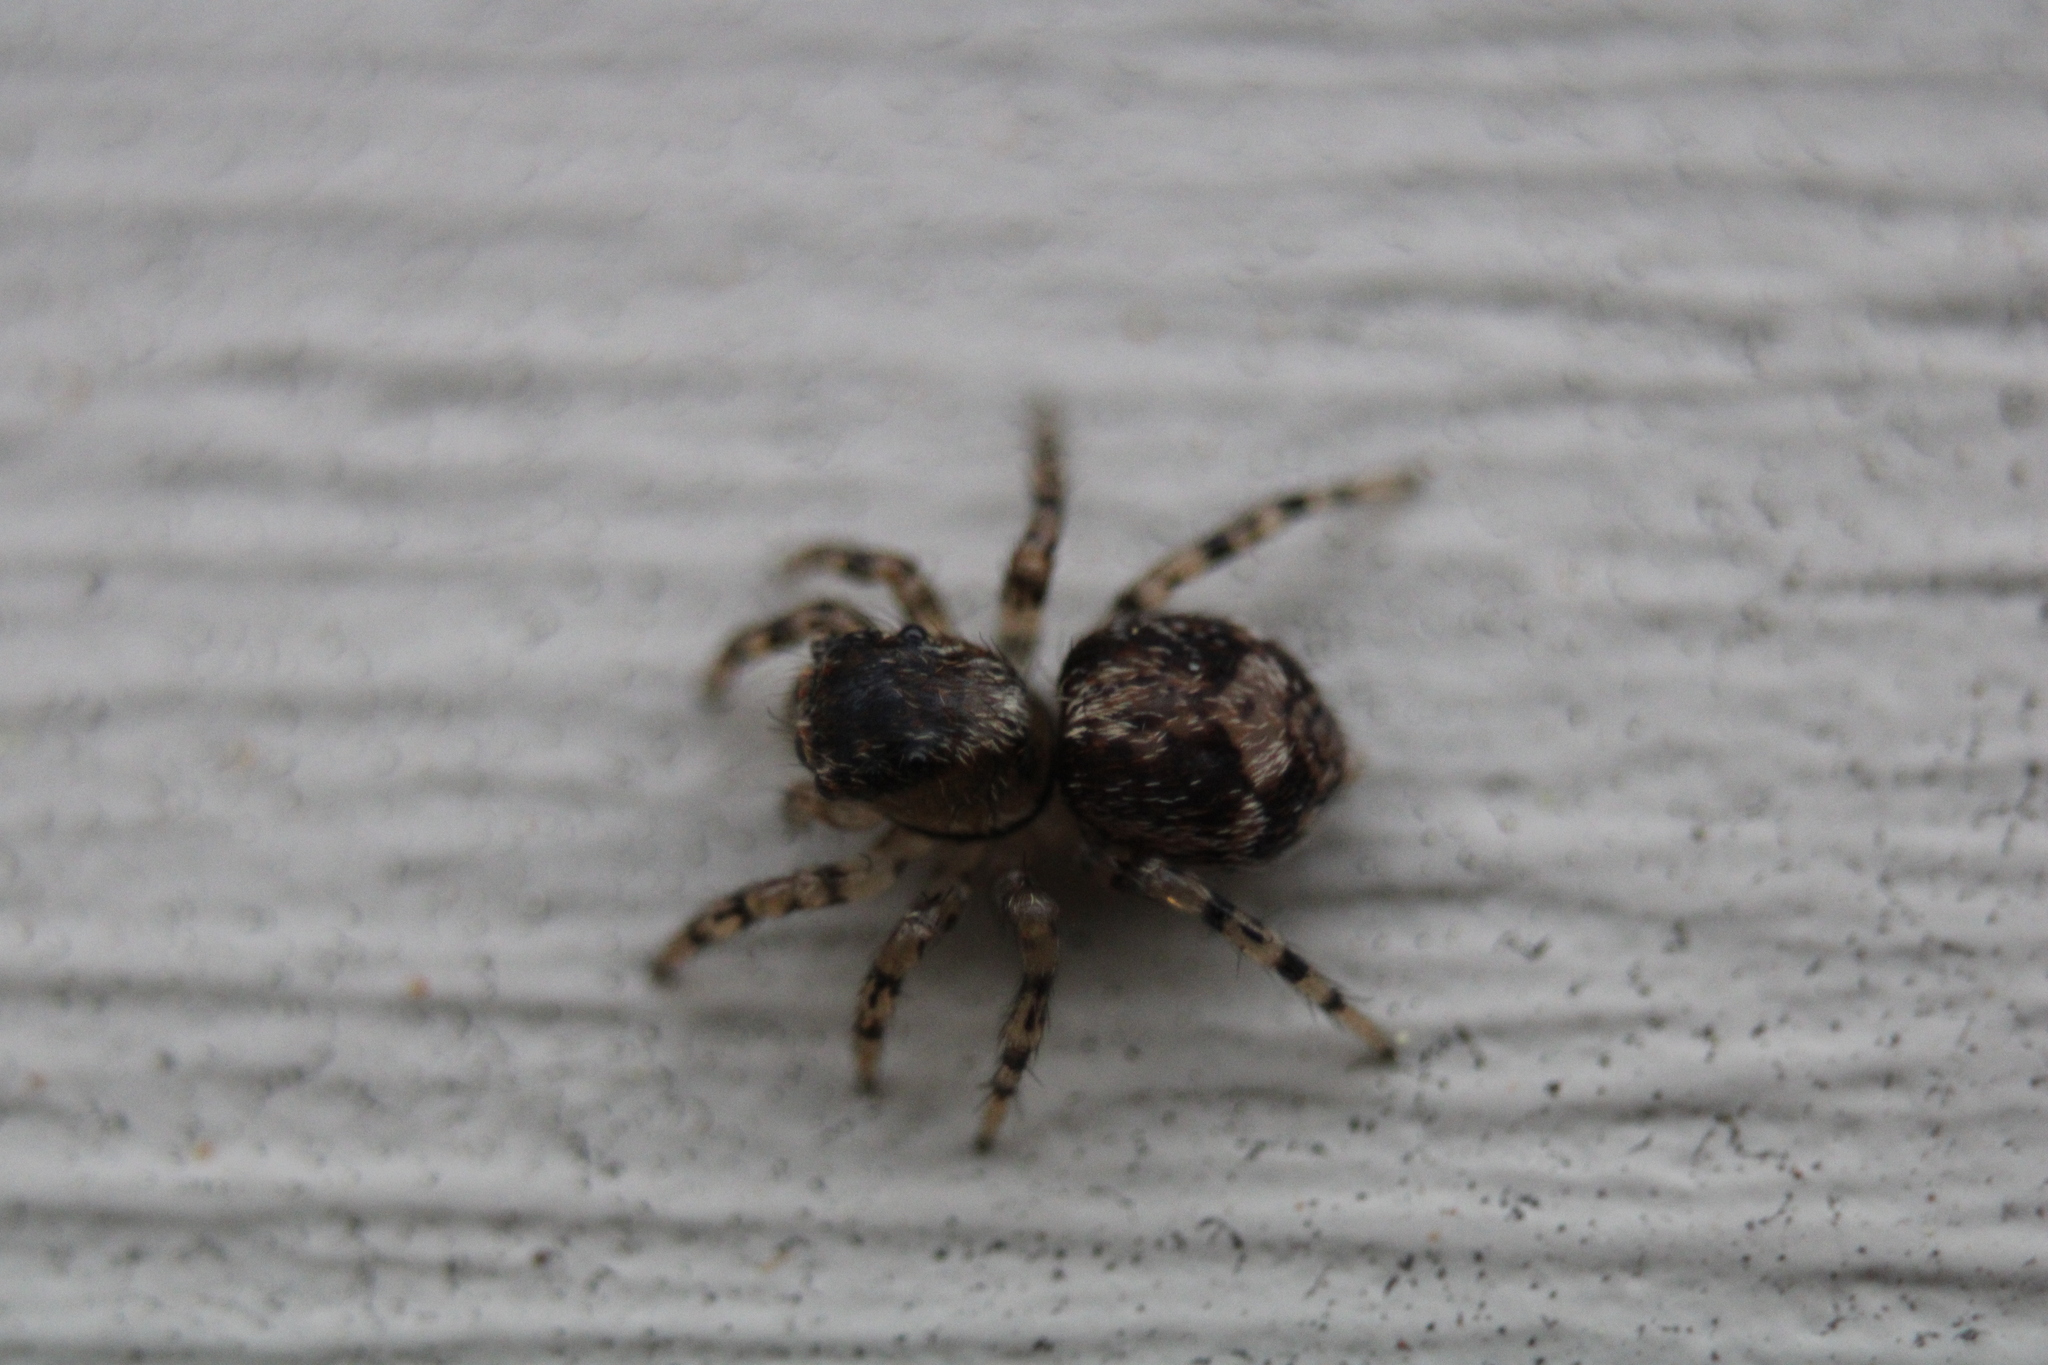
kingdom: Animalia
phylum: Arthropoda
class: Arachnida
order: Araneae
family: Salticidae
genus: Naphrys
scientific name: Naphrys pulex
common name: Flea jumping spider
